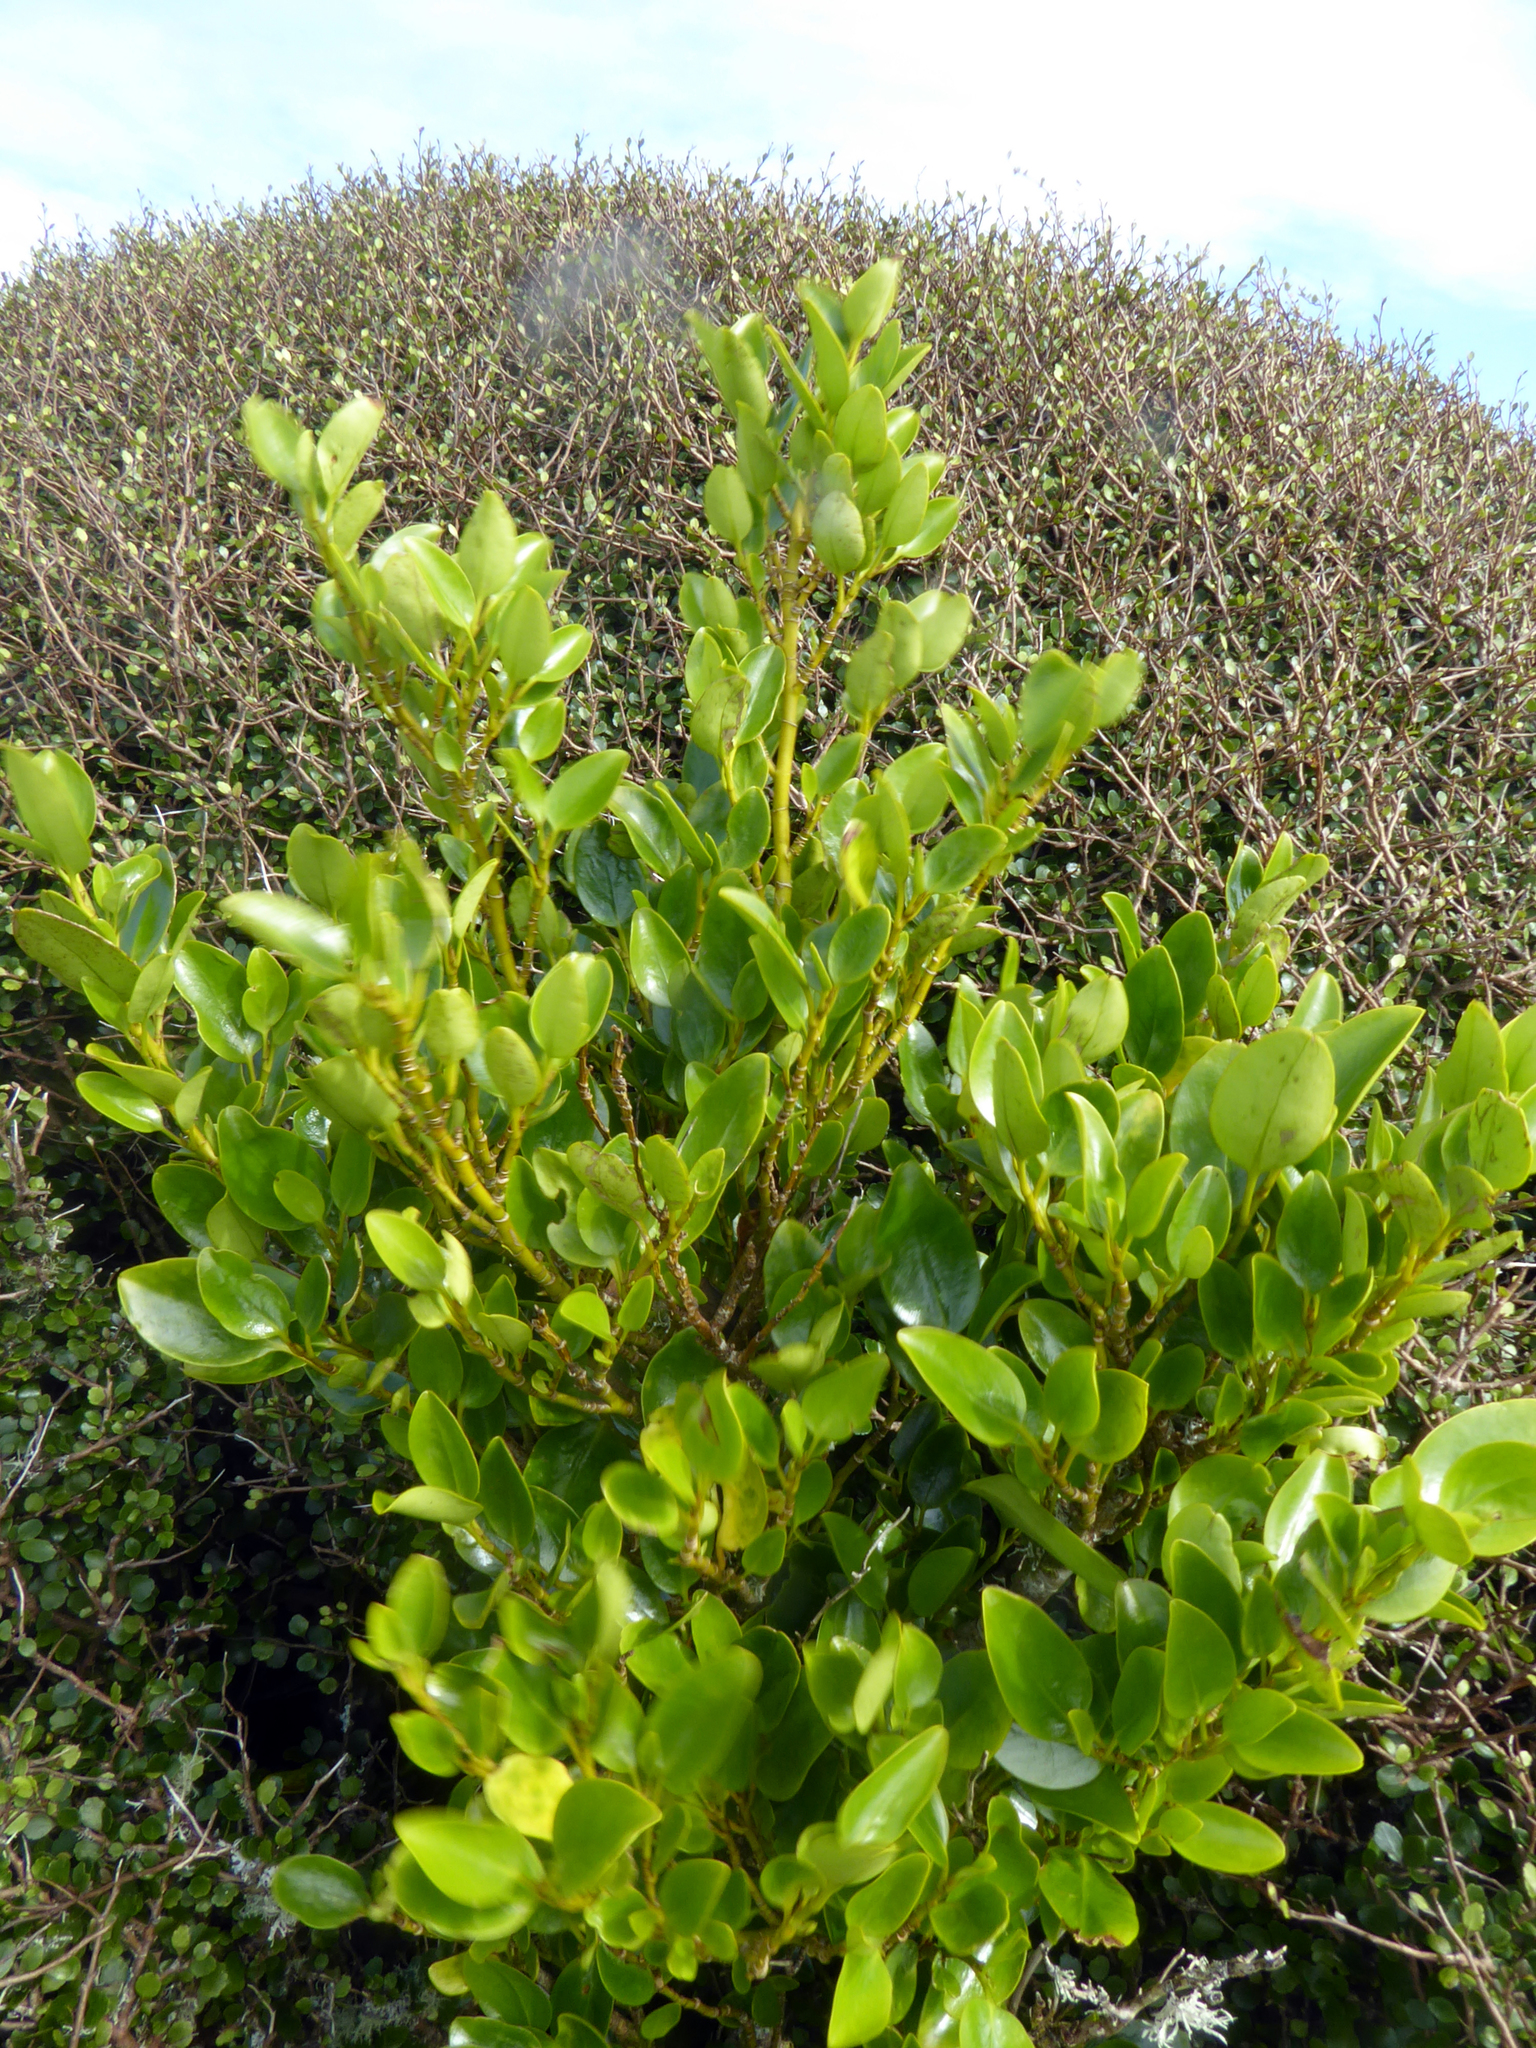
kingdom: Plantae
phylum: Tracheophyta
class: Magnoliopsida
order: Apiales
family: Griseliniaceae
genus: Griselinia
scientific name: Griselinia littoralis
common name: New zealand broadleaf
